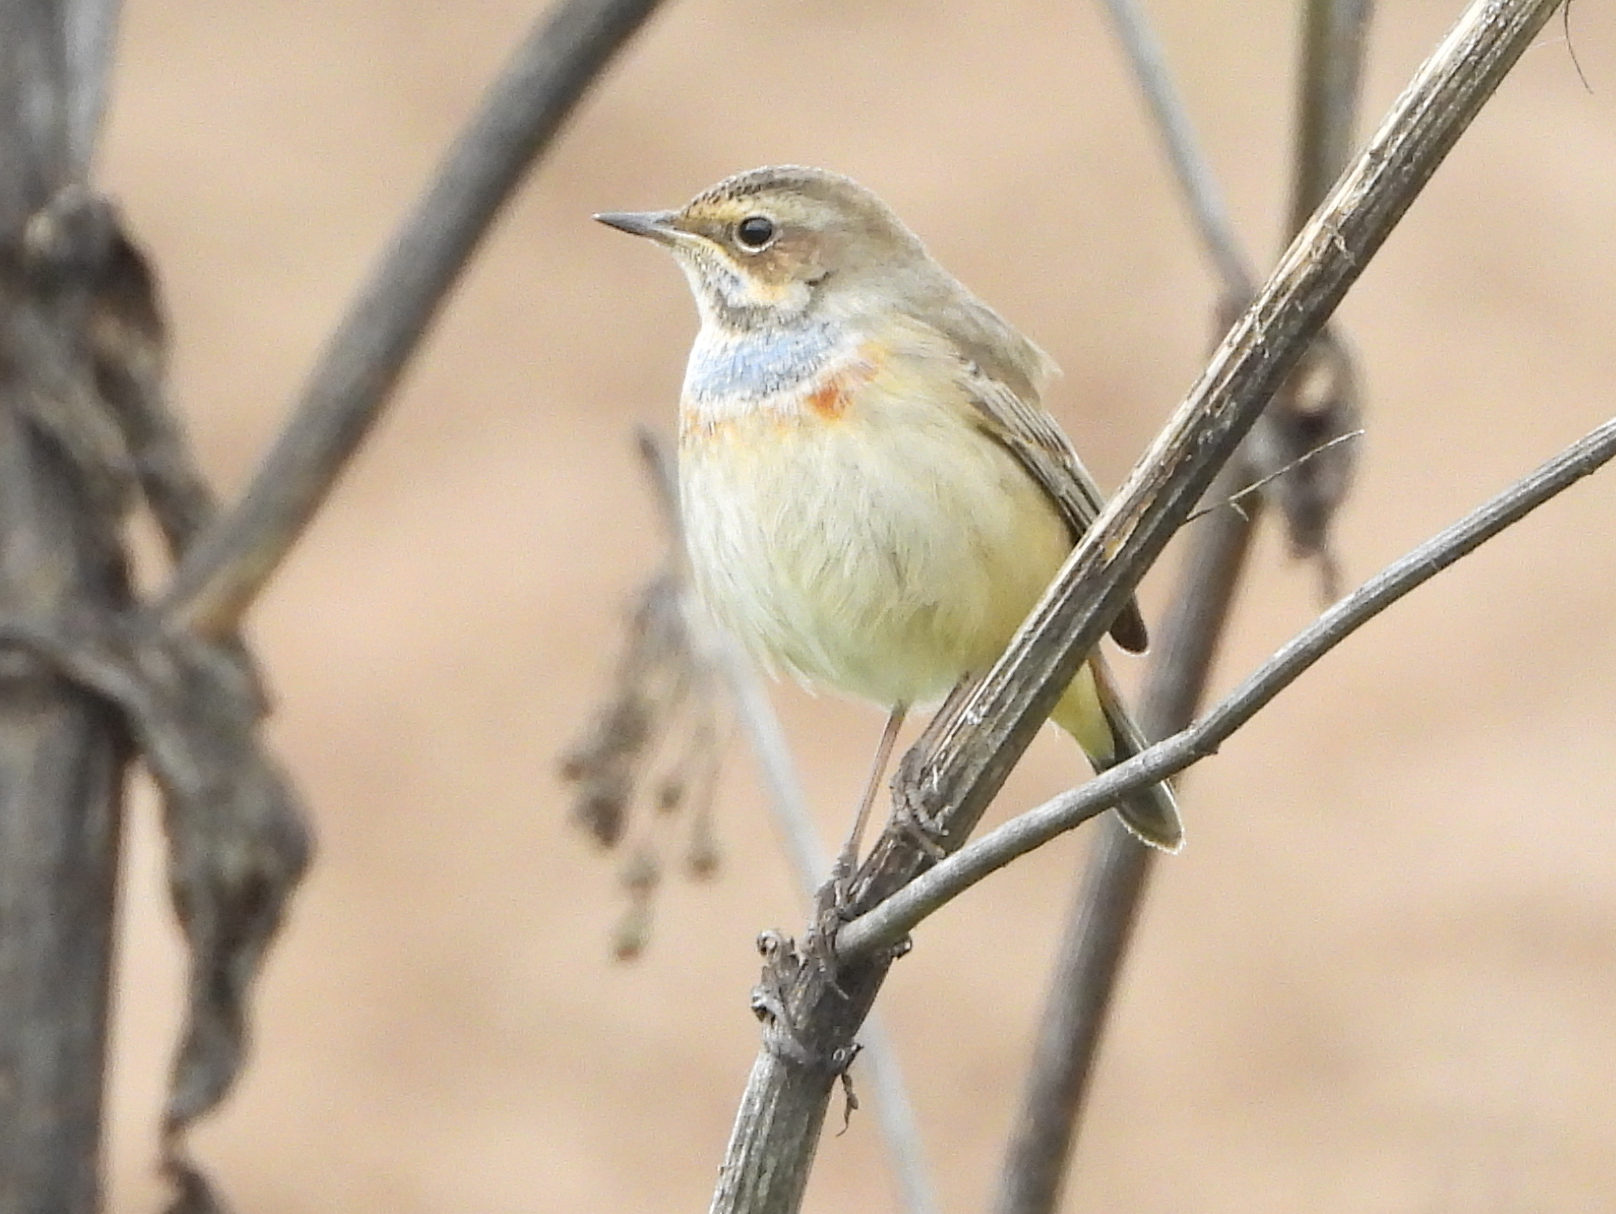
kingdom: Animalia
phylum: Chordata
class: Aves
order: Passeriformes
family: Muscicapidae
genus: Luscinia
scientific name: Luscinia svecica
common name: Bluethroat
